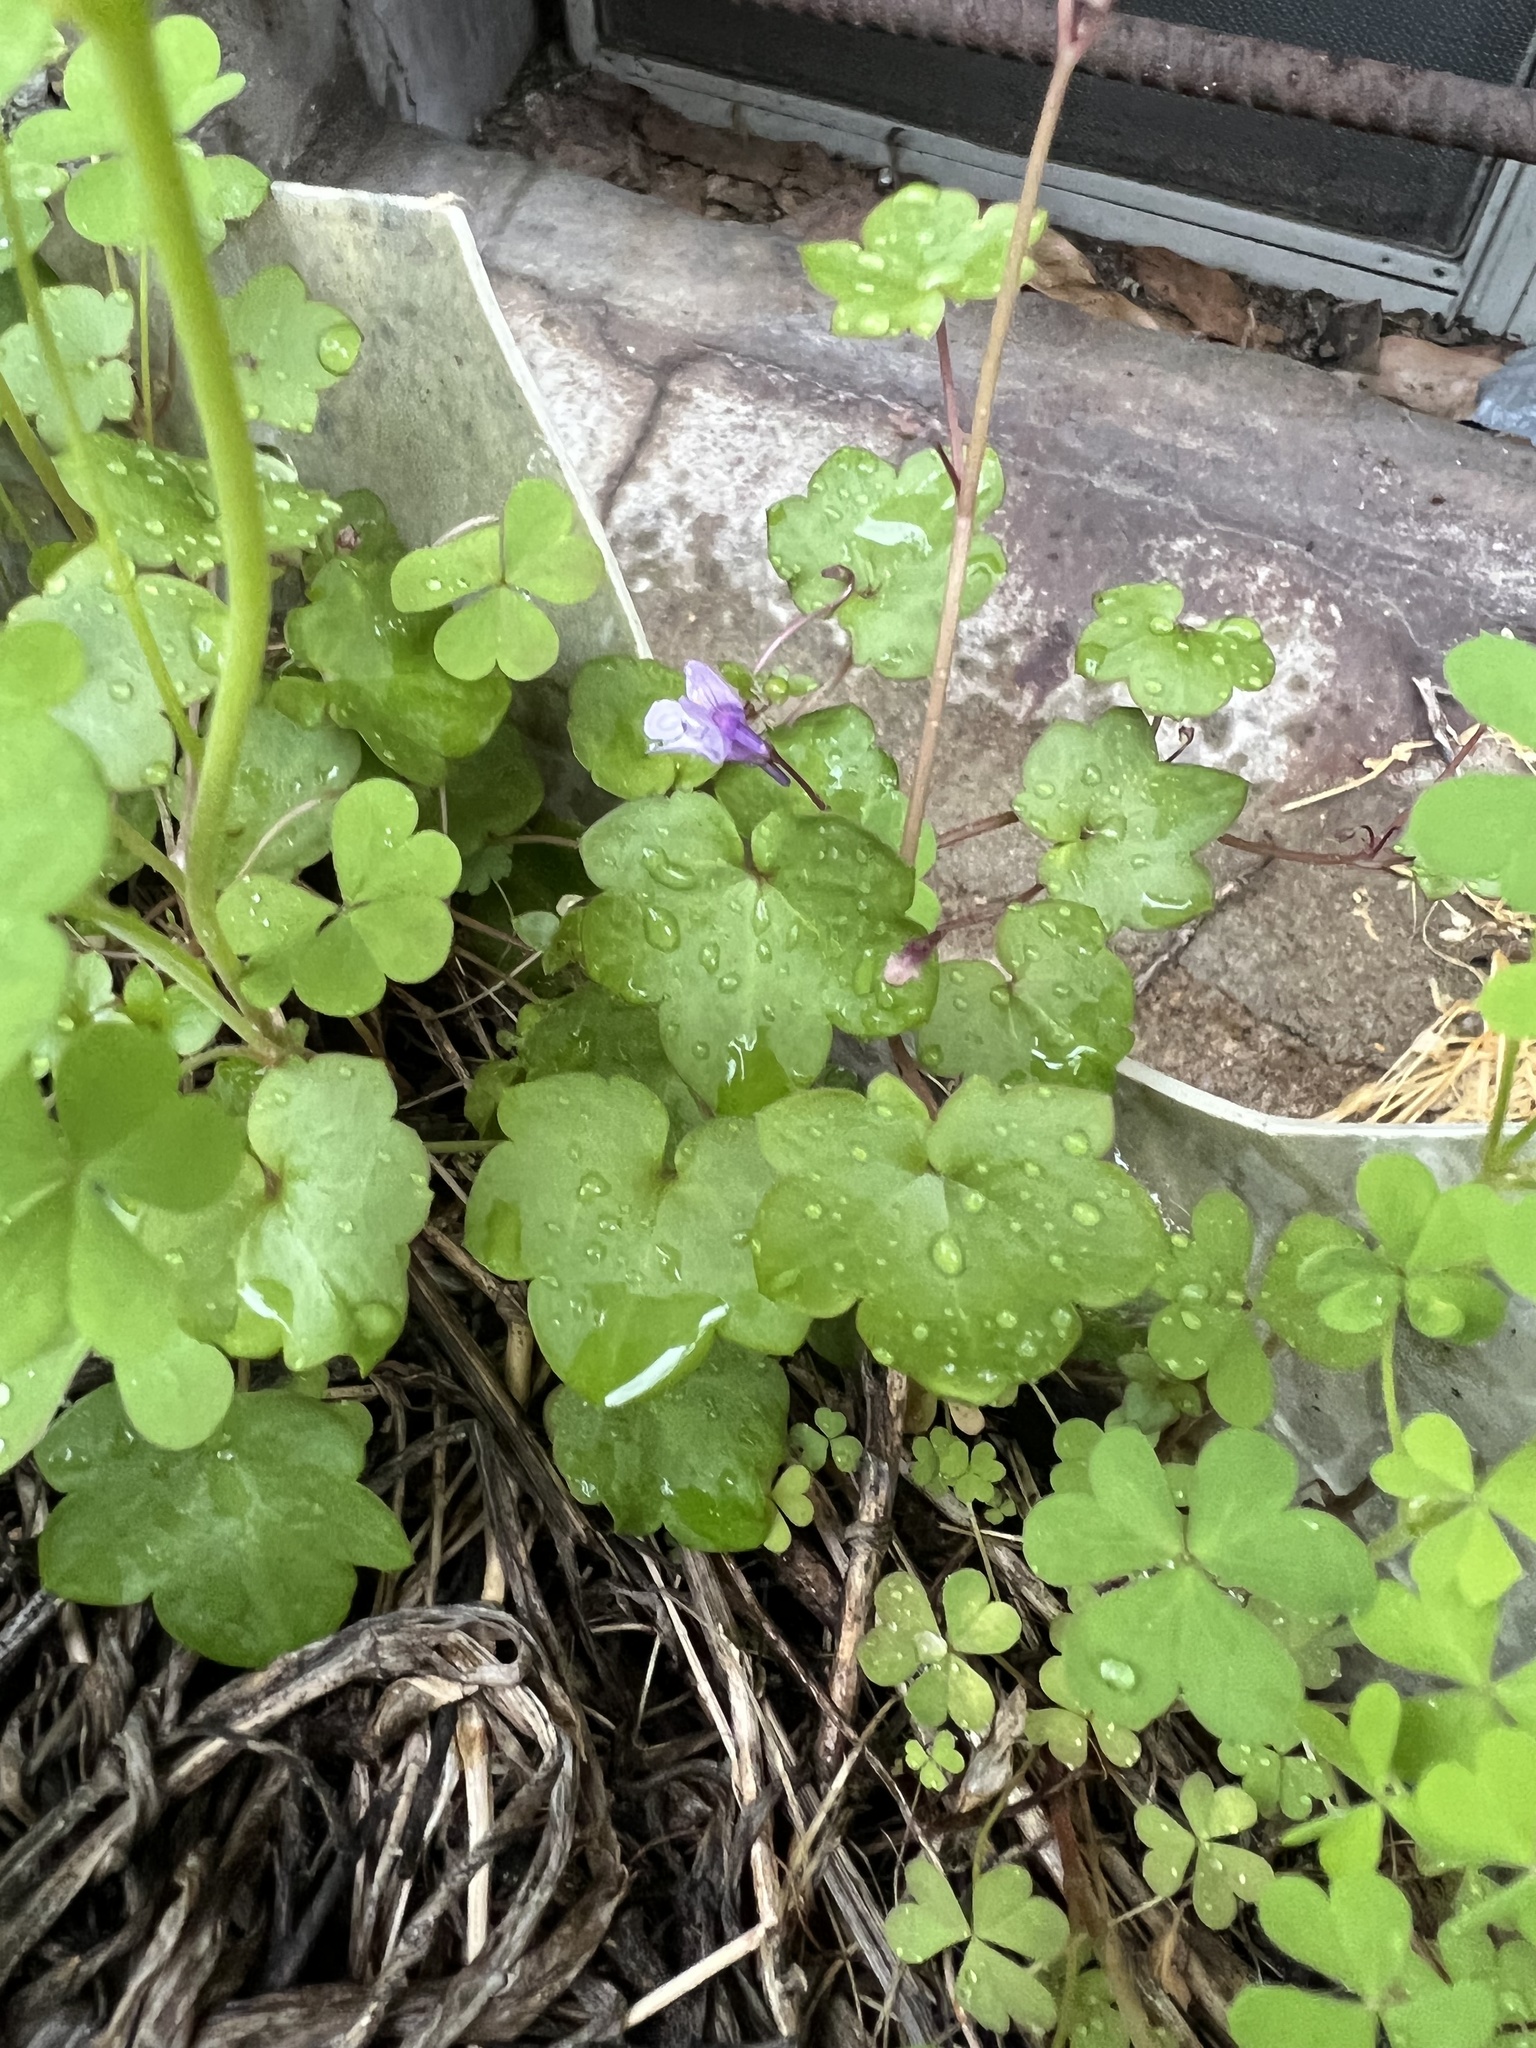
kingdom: Plantae
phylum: Tracheophyta
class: Magnoliopsida
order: Lamiales
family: Plantaginaceae
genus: Cymbalaria
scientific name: Cymbalaria muralis
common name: Ivy-leaved toadflax
